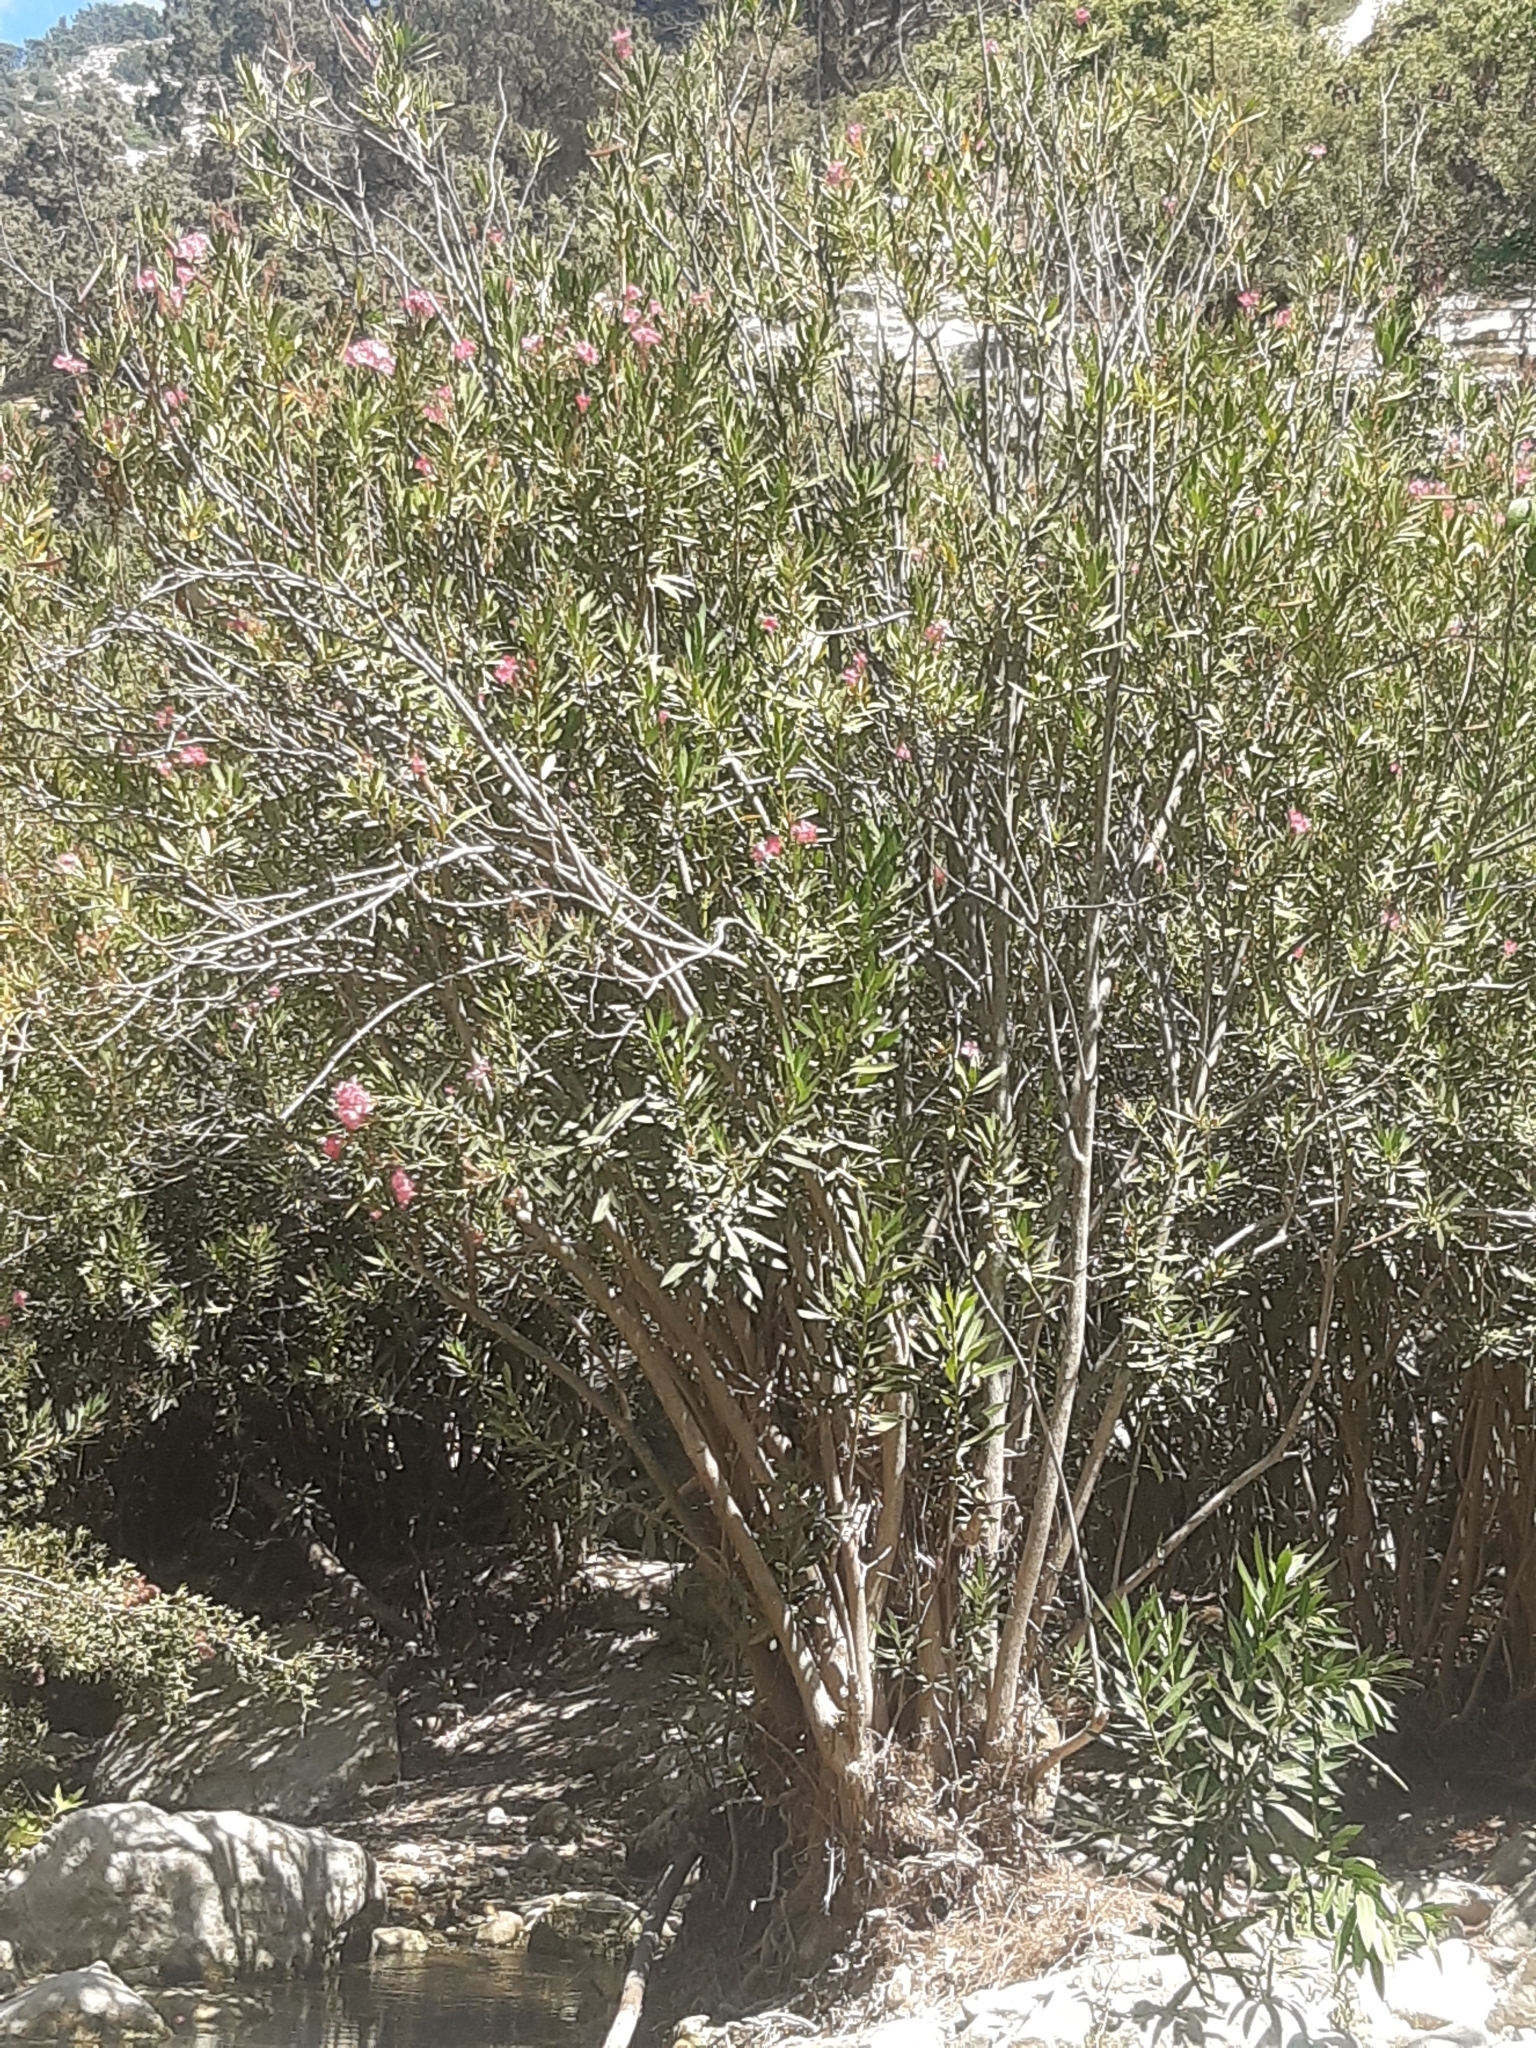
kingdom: Plantae
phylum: Tracheophyta
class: Magnoliopsida
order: Gentianales
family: Apocynaceae
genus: Nerium
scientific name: Nerium oleander
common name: Oleander
